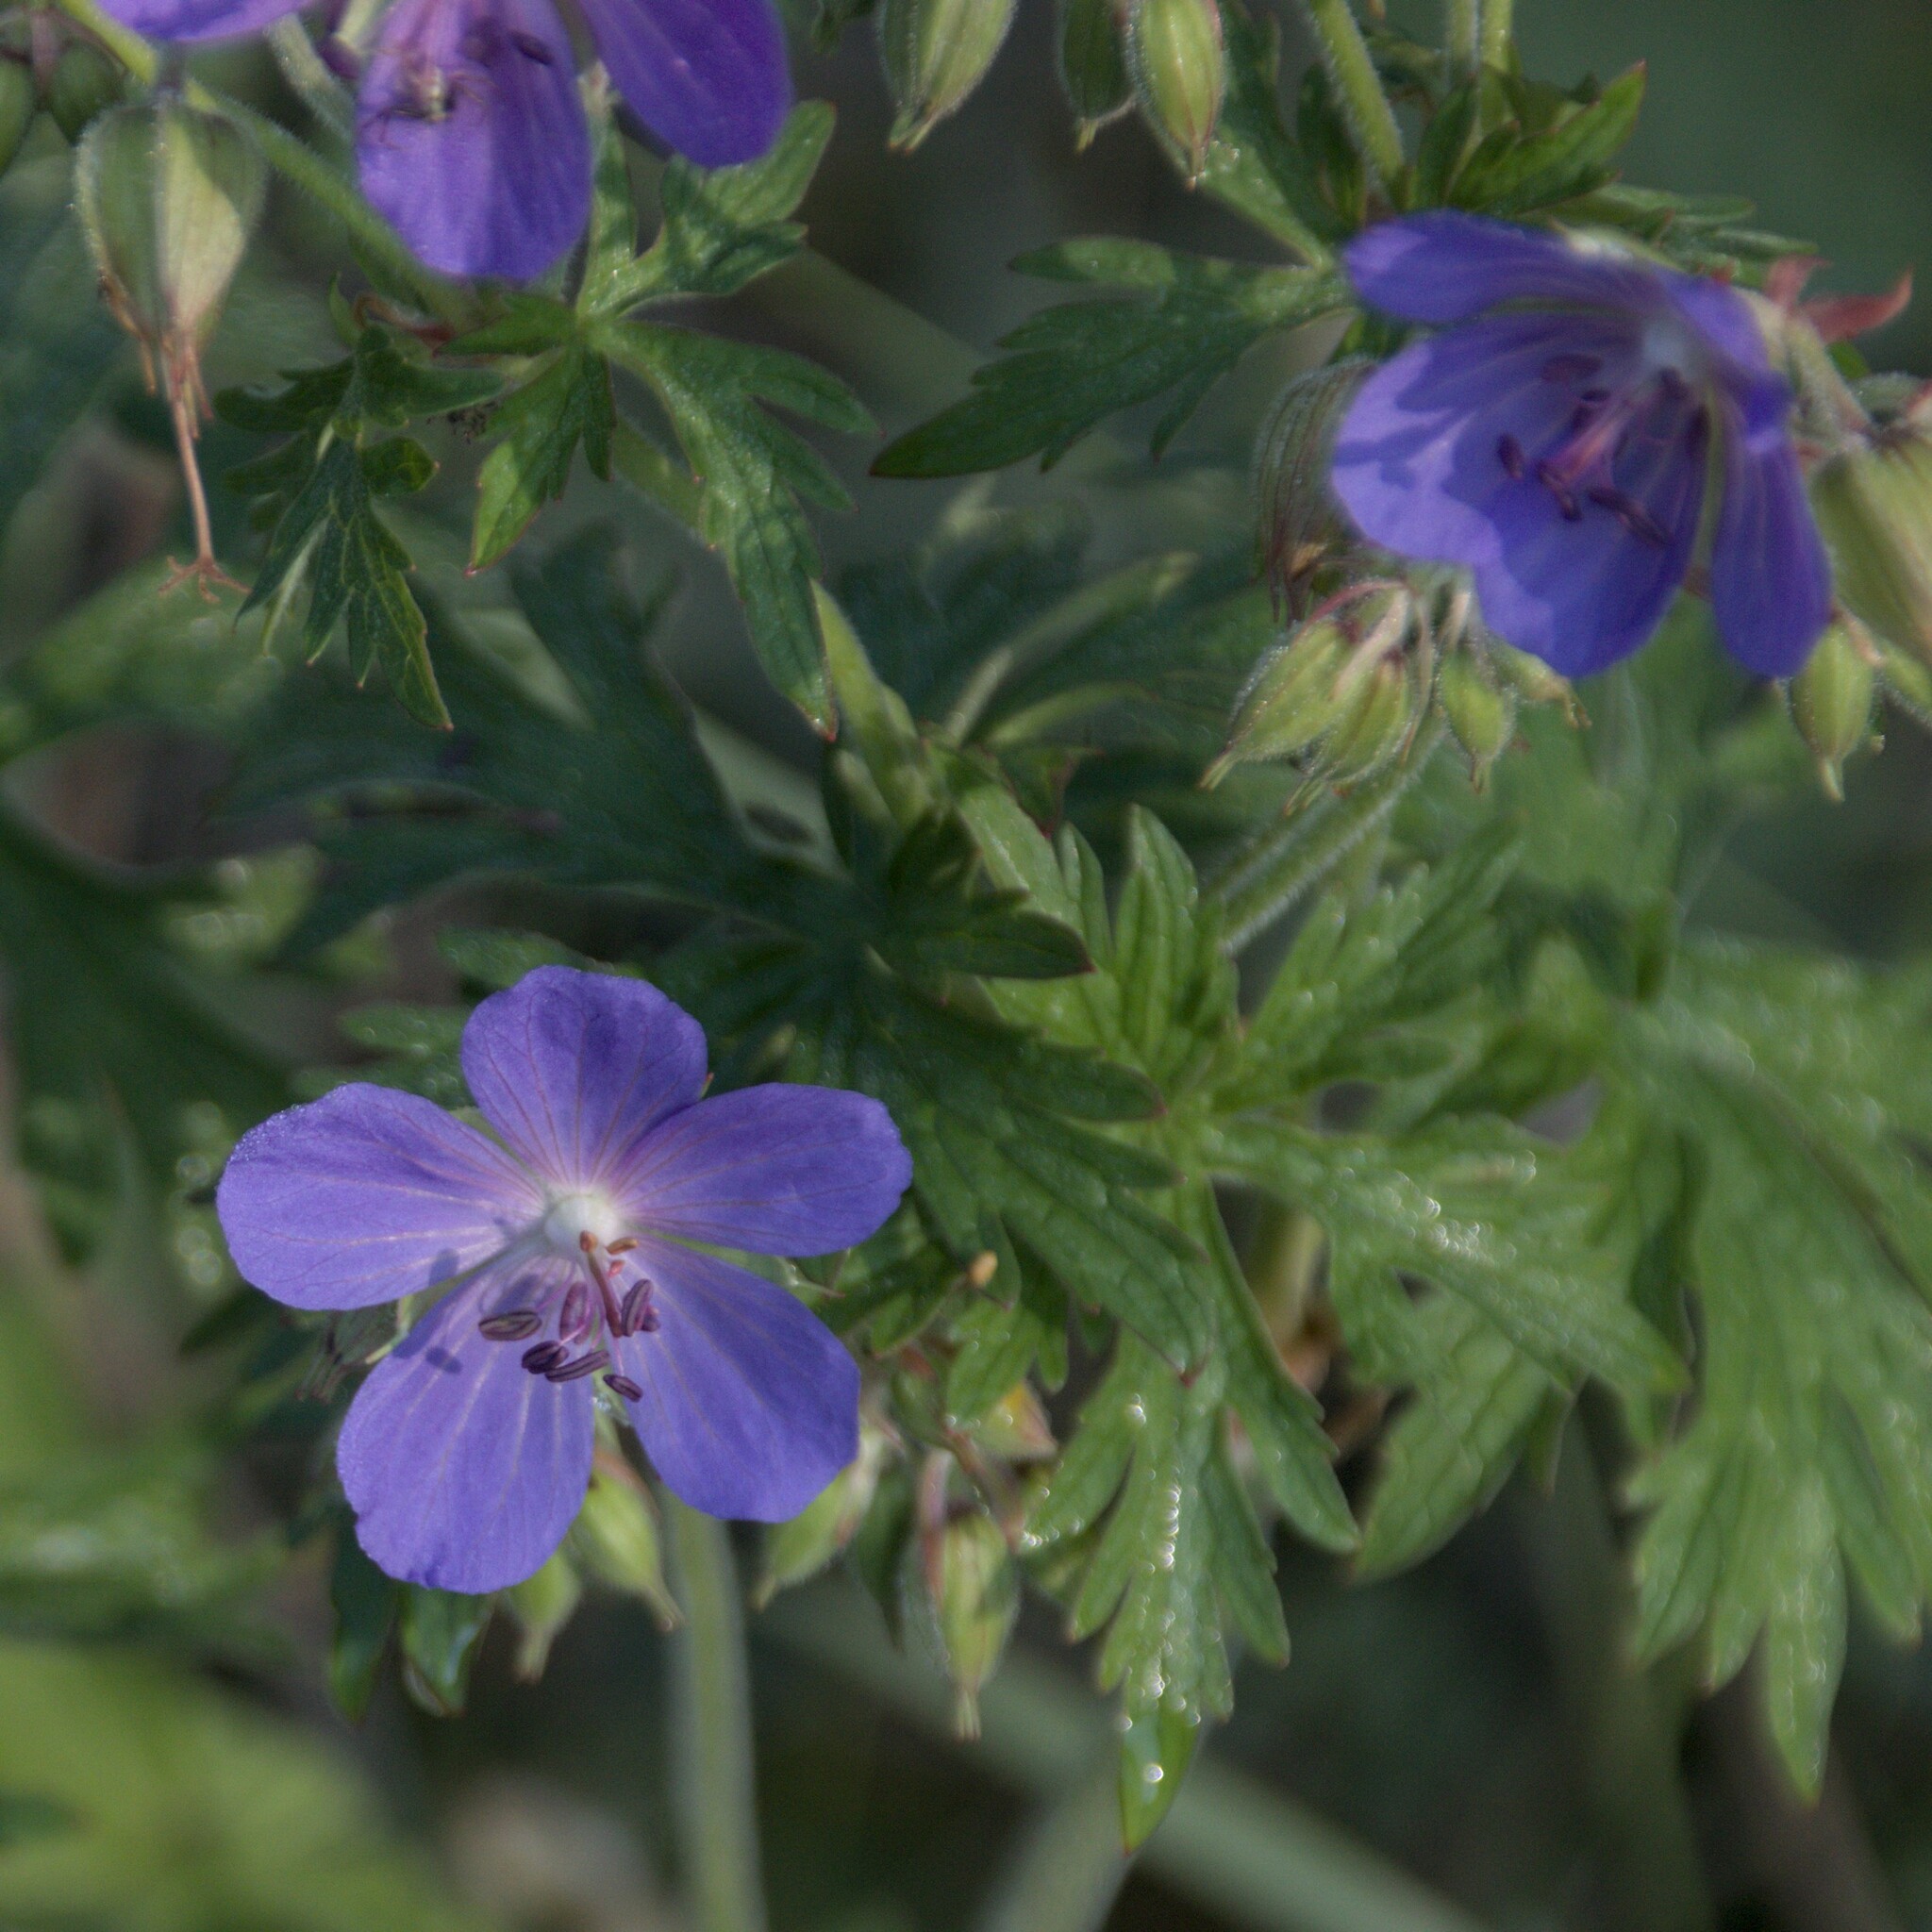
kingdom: Plantae
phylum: Tracheophyta
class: Magnoliopsida
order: Geraniales
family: Geraniaceae
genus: Geranium
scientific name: Geranium pratense
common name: Meadow crane's-bill
